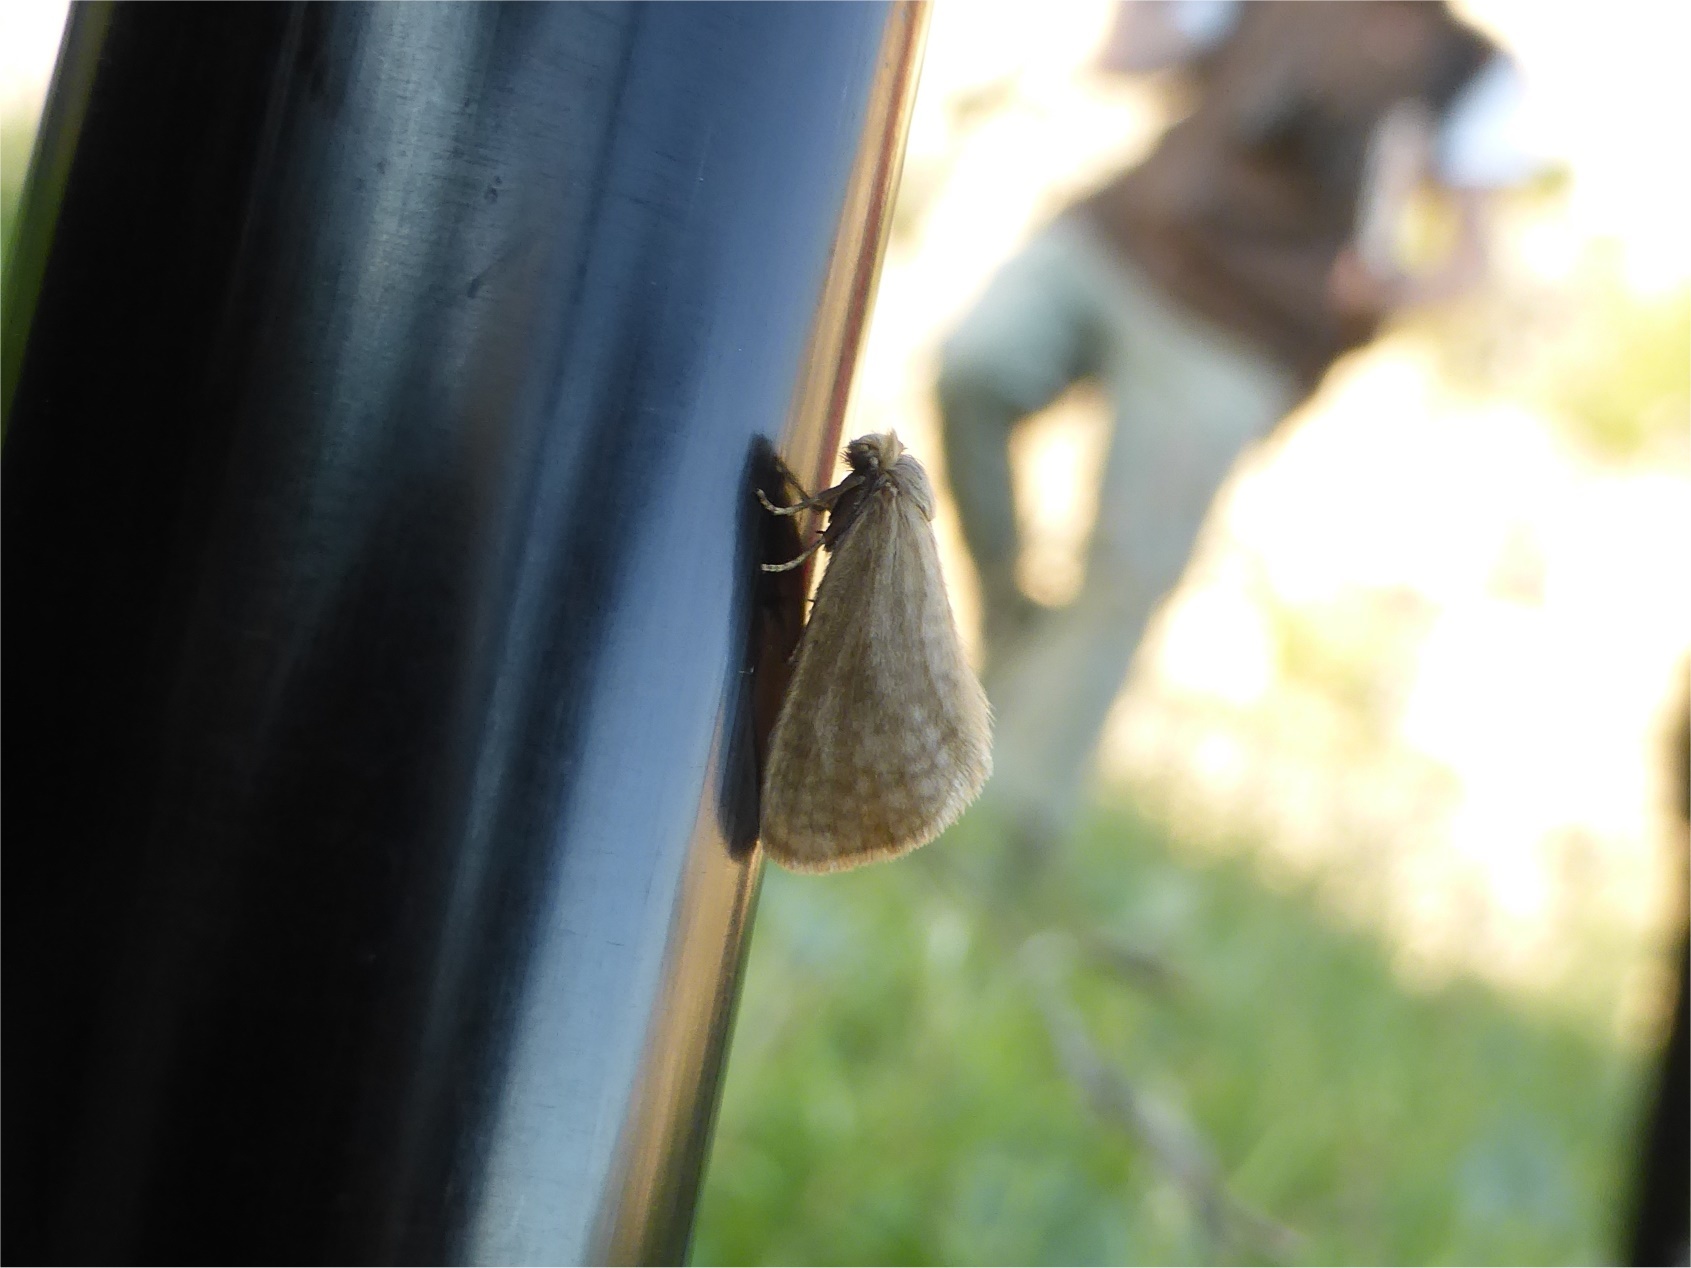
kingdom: Animalia
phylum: Arthropoda
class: Insecta
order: Lepidoptera
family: Psychidae
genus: Bijugis
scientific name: Bijugis bombycella
